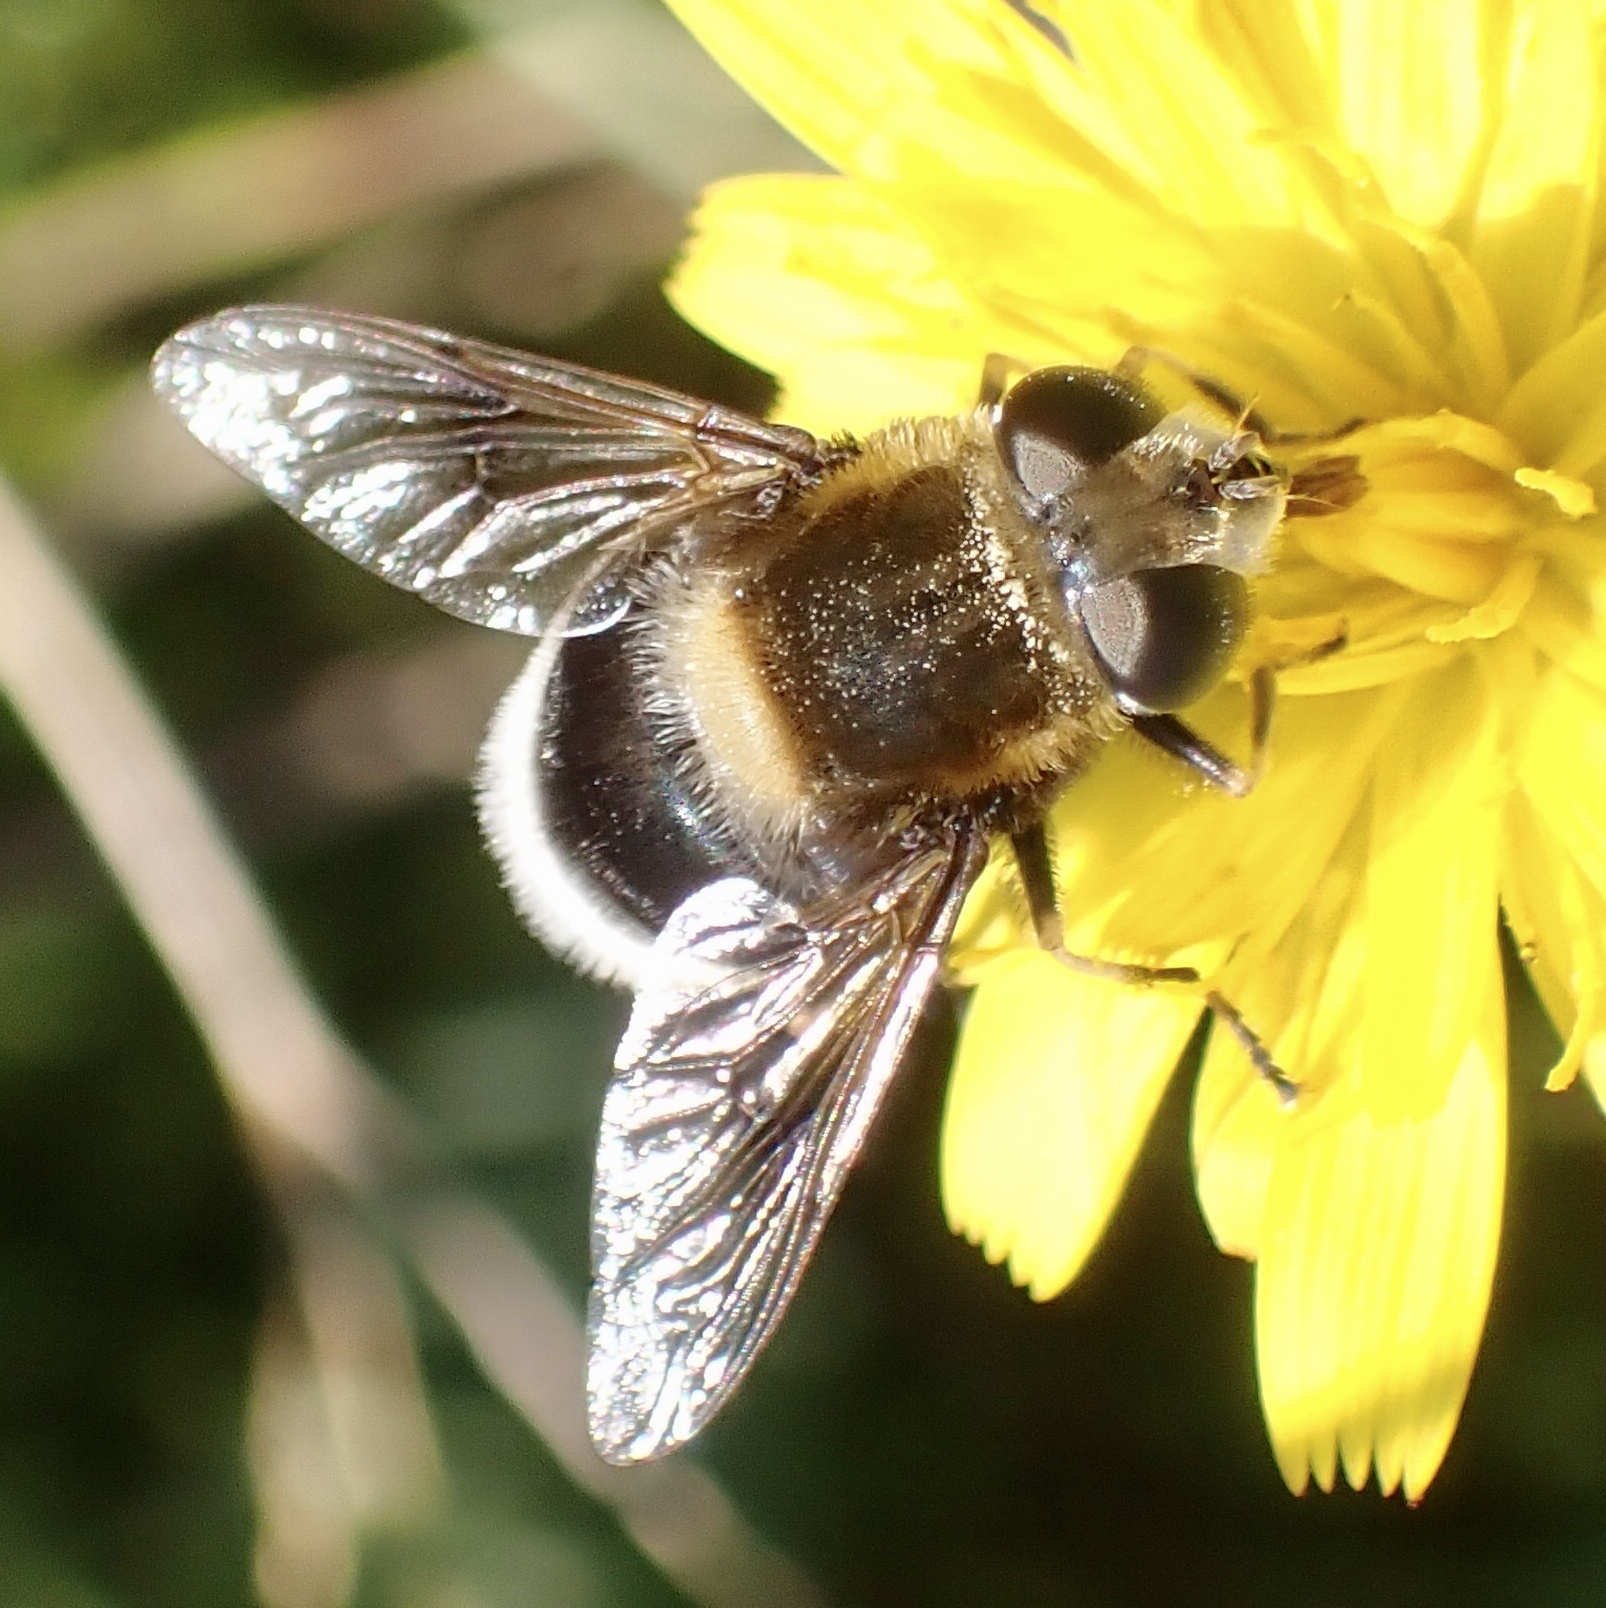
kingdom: Animalia
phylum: Arthropoda
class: Insecta
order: Diptera
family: Syrphidae
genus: Eristalis
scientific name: Eristalis intricaria
